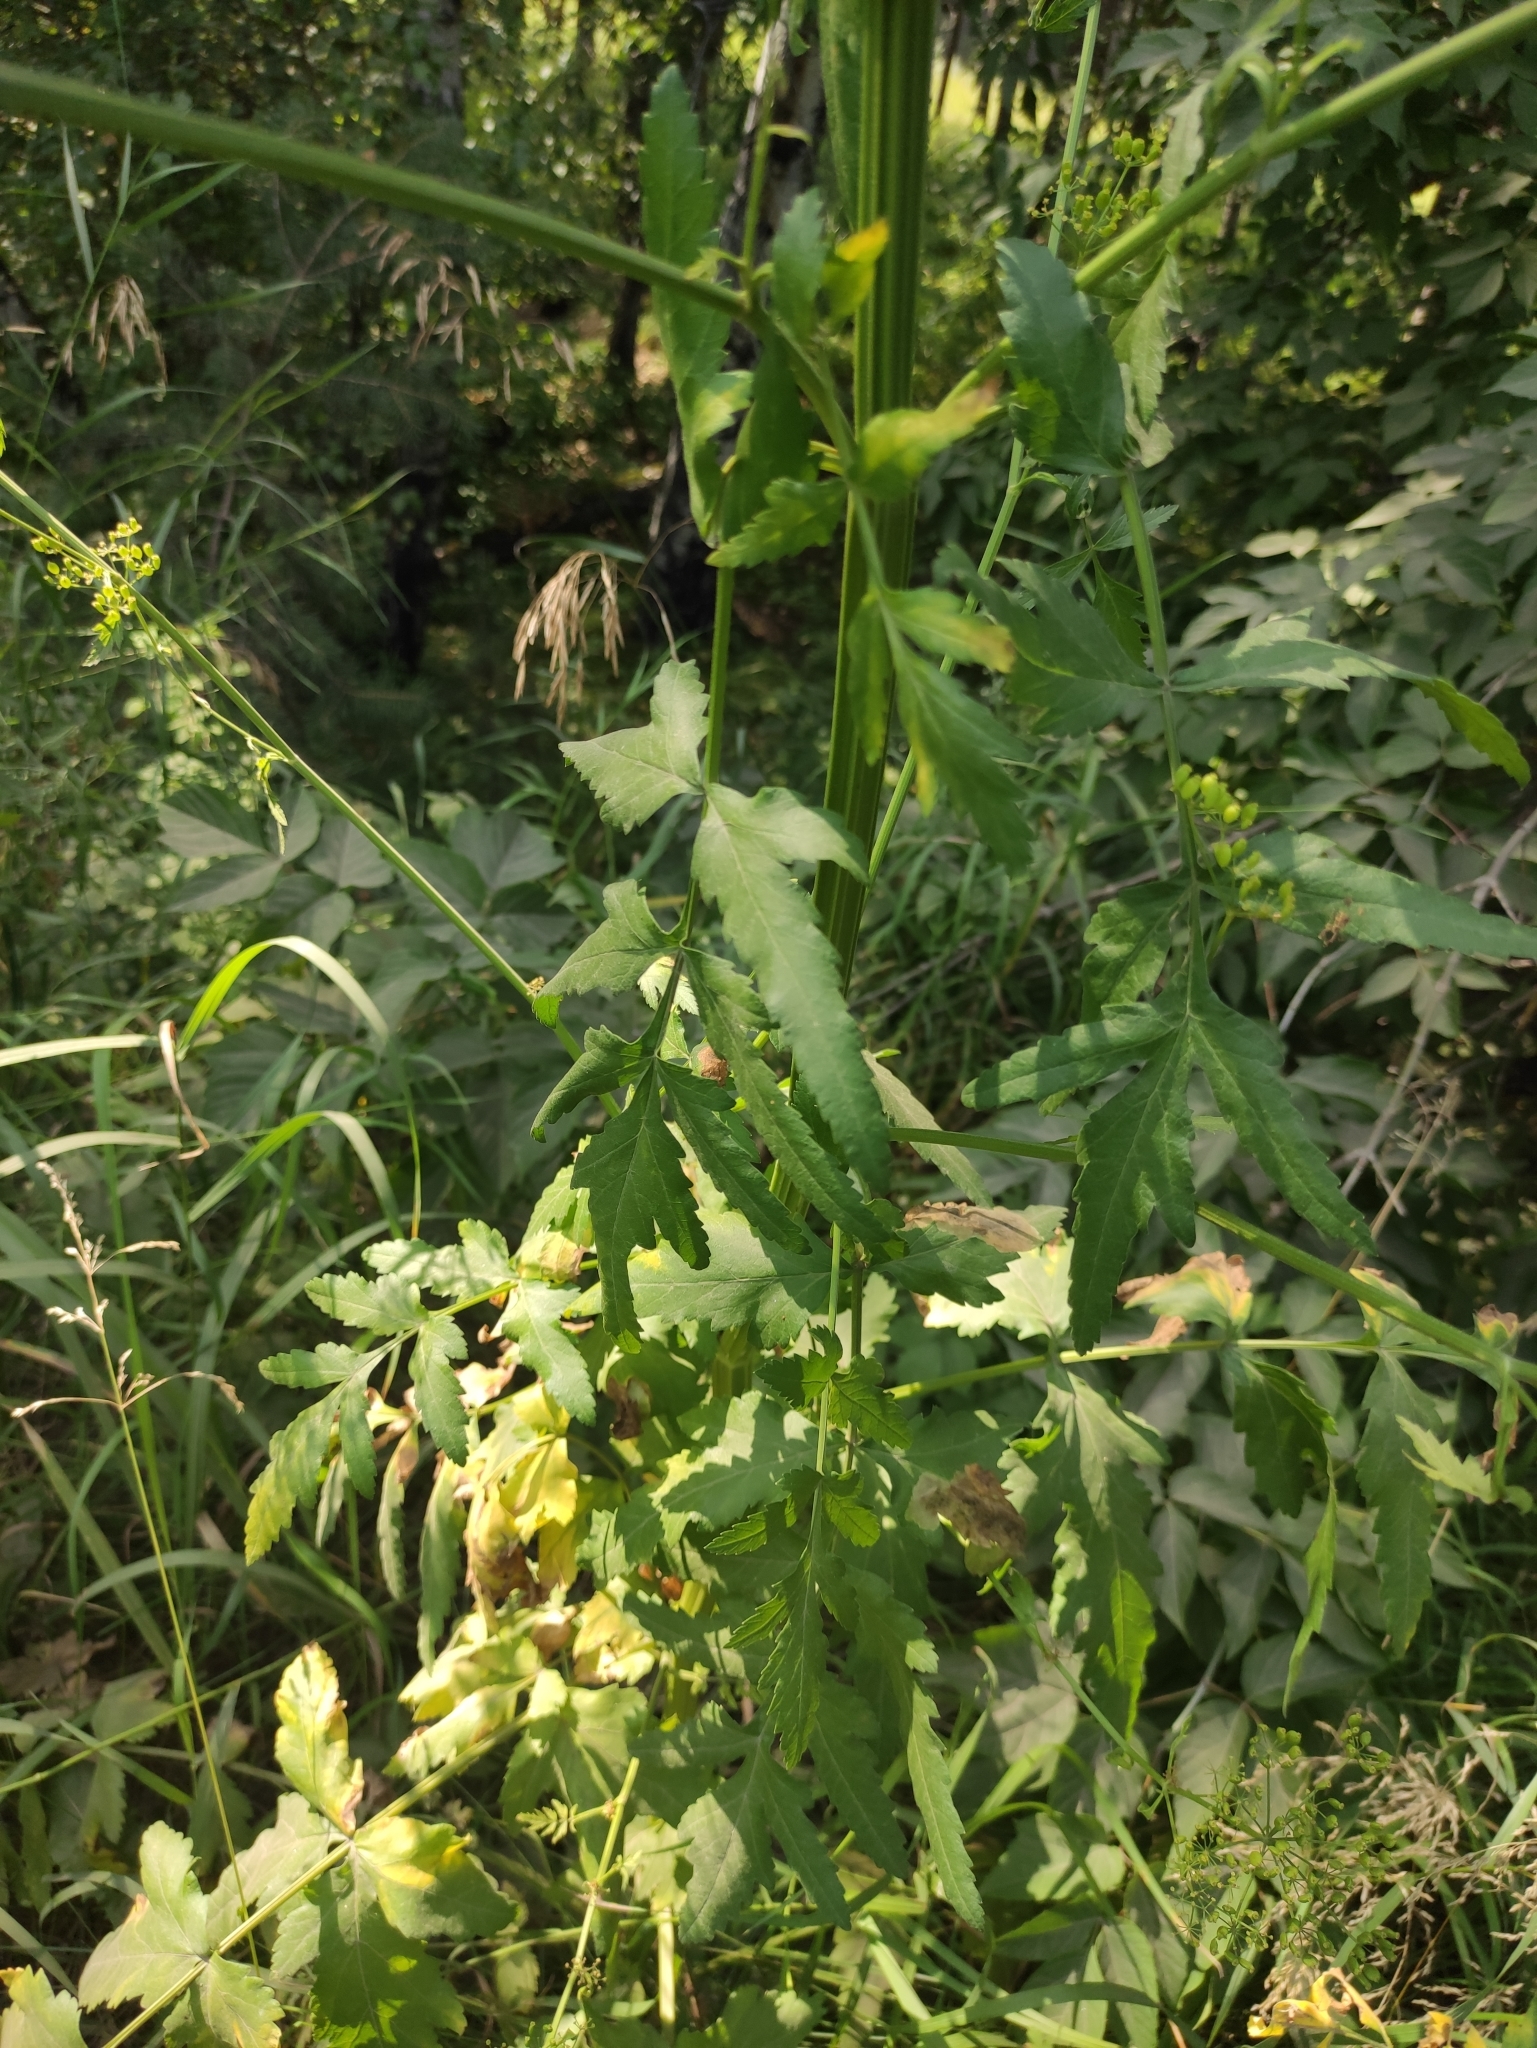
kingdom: Plantae
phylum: Tracheophyta
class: Magnoliopsida
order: Apiales
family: Apiaceae
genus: Pastinaca
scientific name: Pastinaca sativa
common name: Wild parsnip
